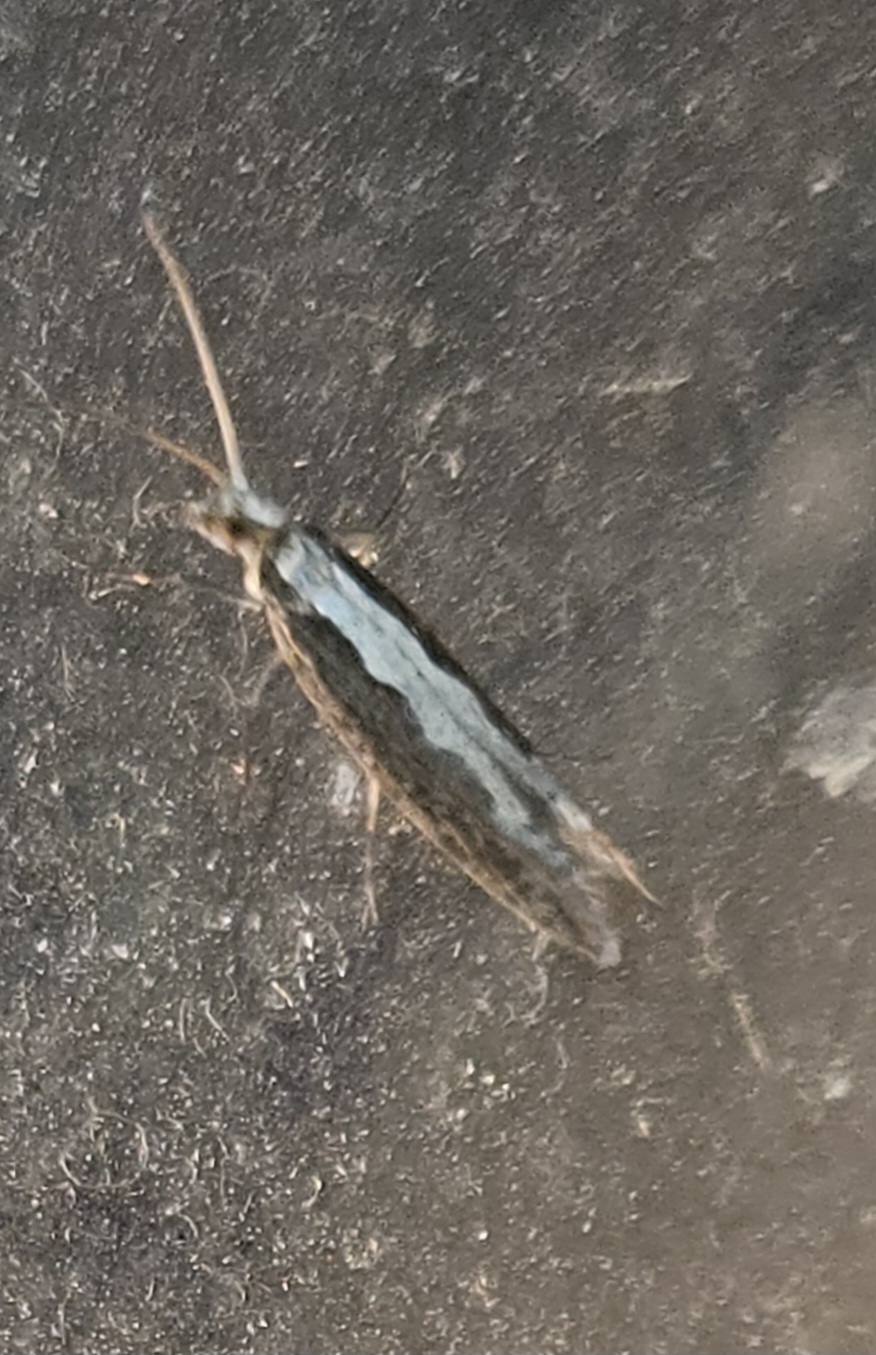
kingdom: Animalia
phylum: Arthropoda
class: Insecta
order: Lepidoptera
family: Plutellidae
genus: Plutella
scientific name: Plutella xylostella
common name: Diamond-back moth
